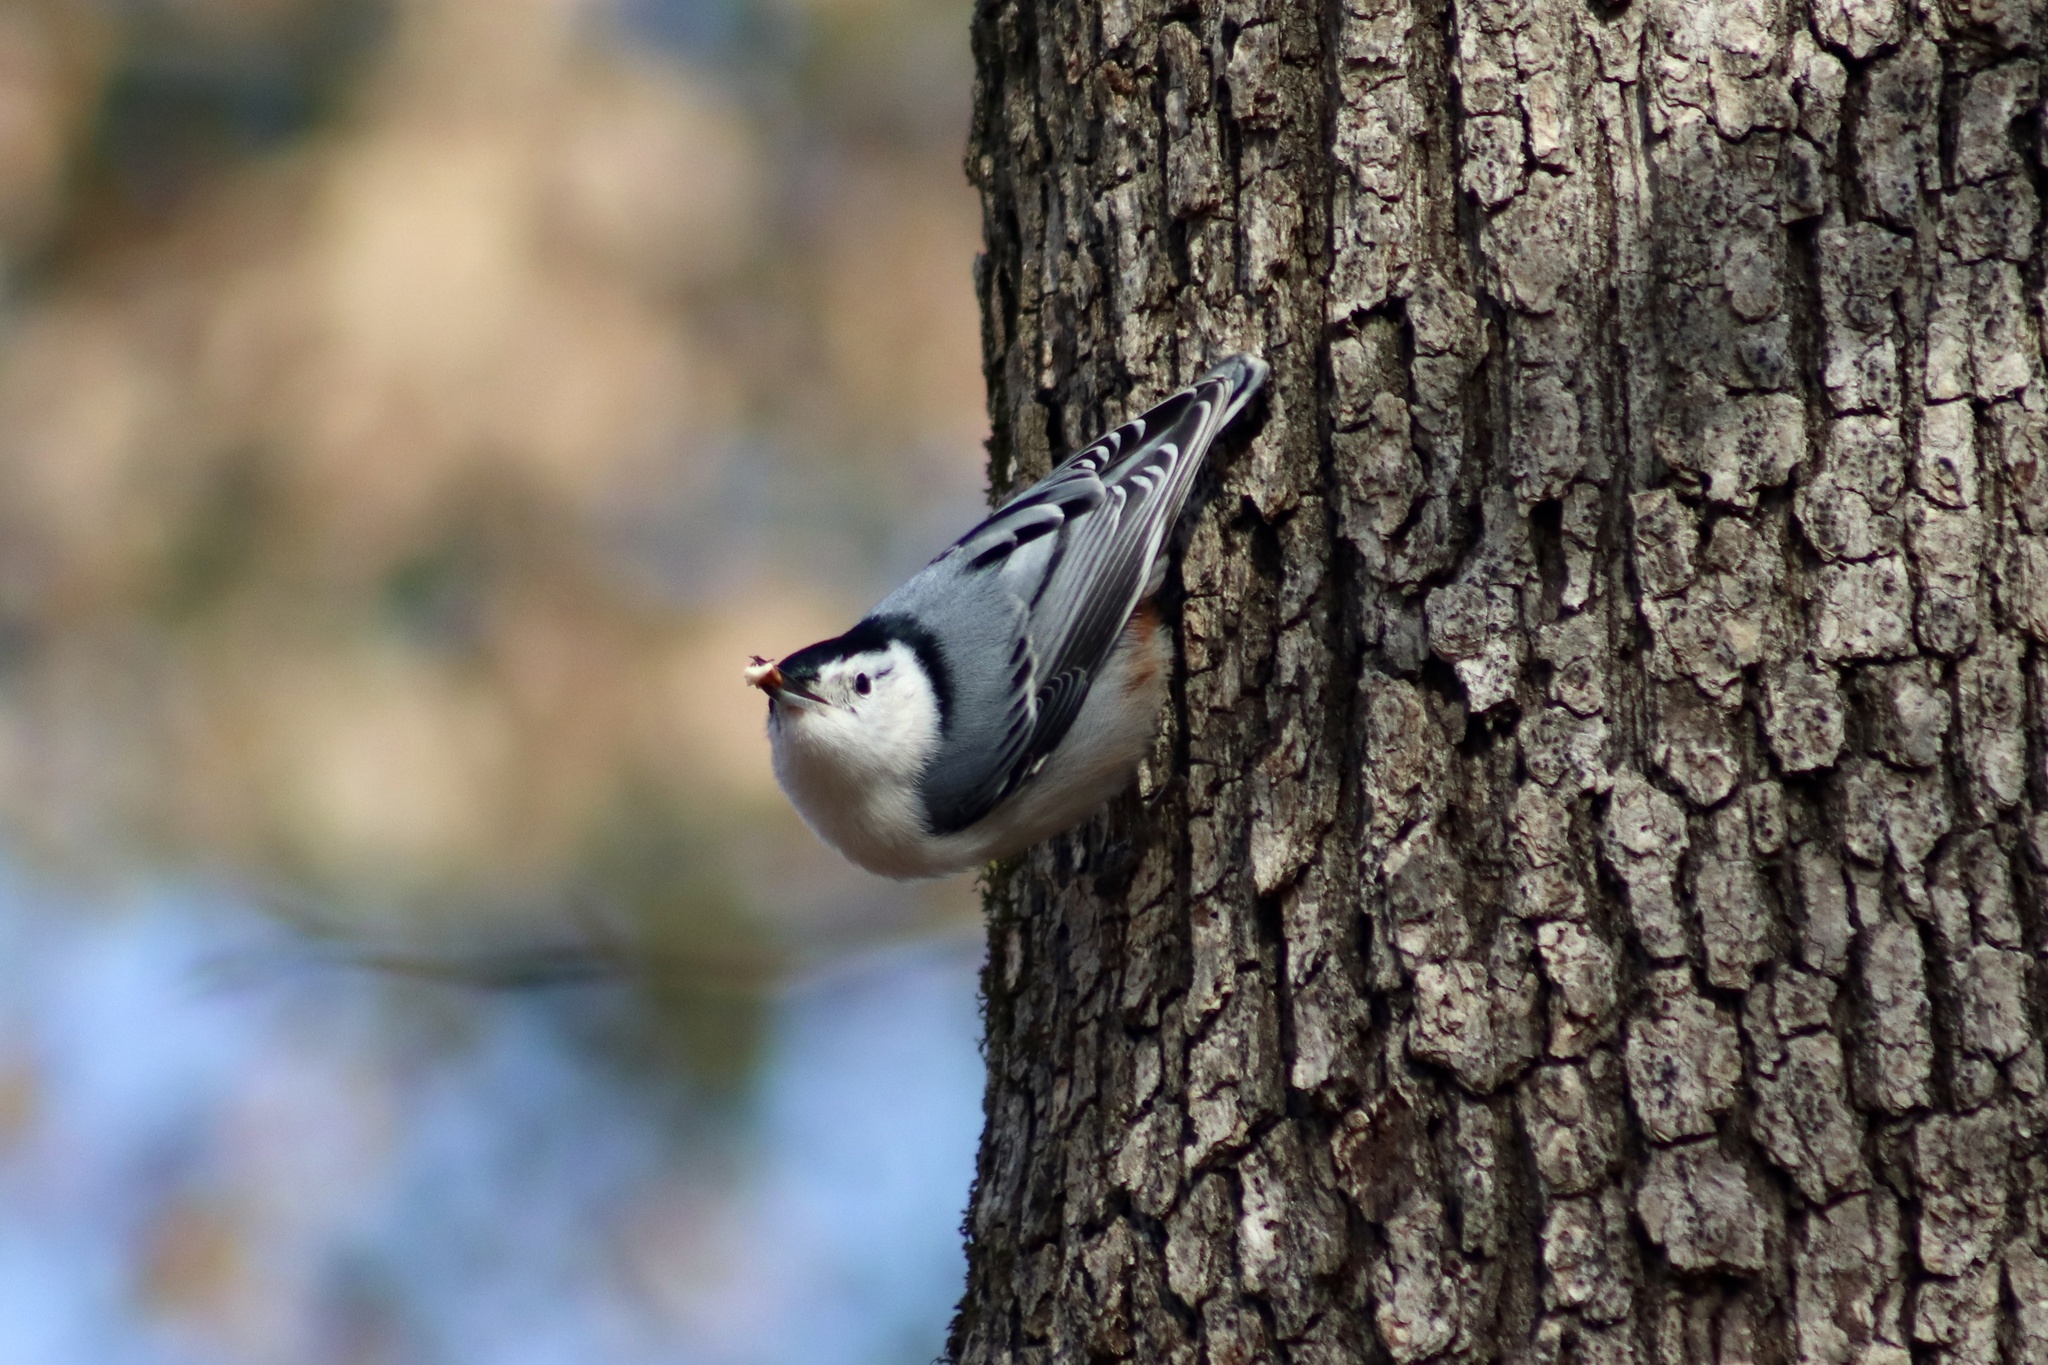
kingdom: Animalia
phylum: Chordata
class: Aves
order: Passeriformes
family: Sittidae
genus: Sitta
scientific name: Sitta carolinensis
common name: White-breasted nuthatch
